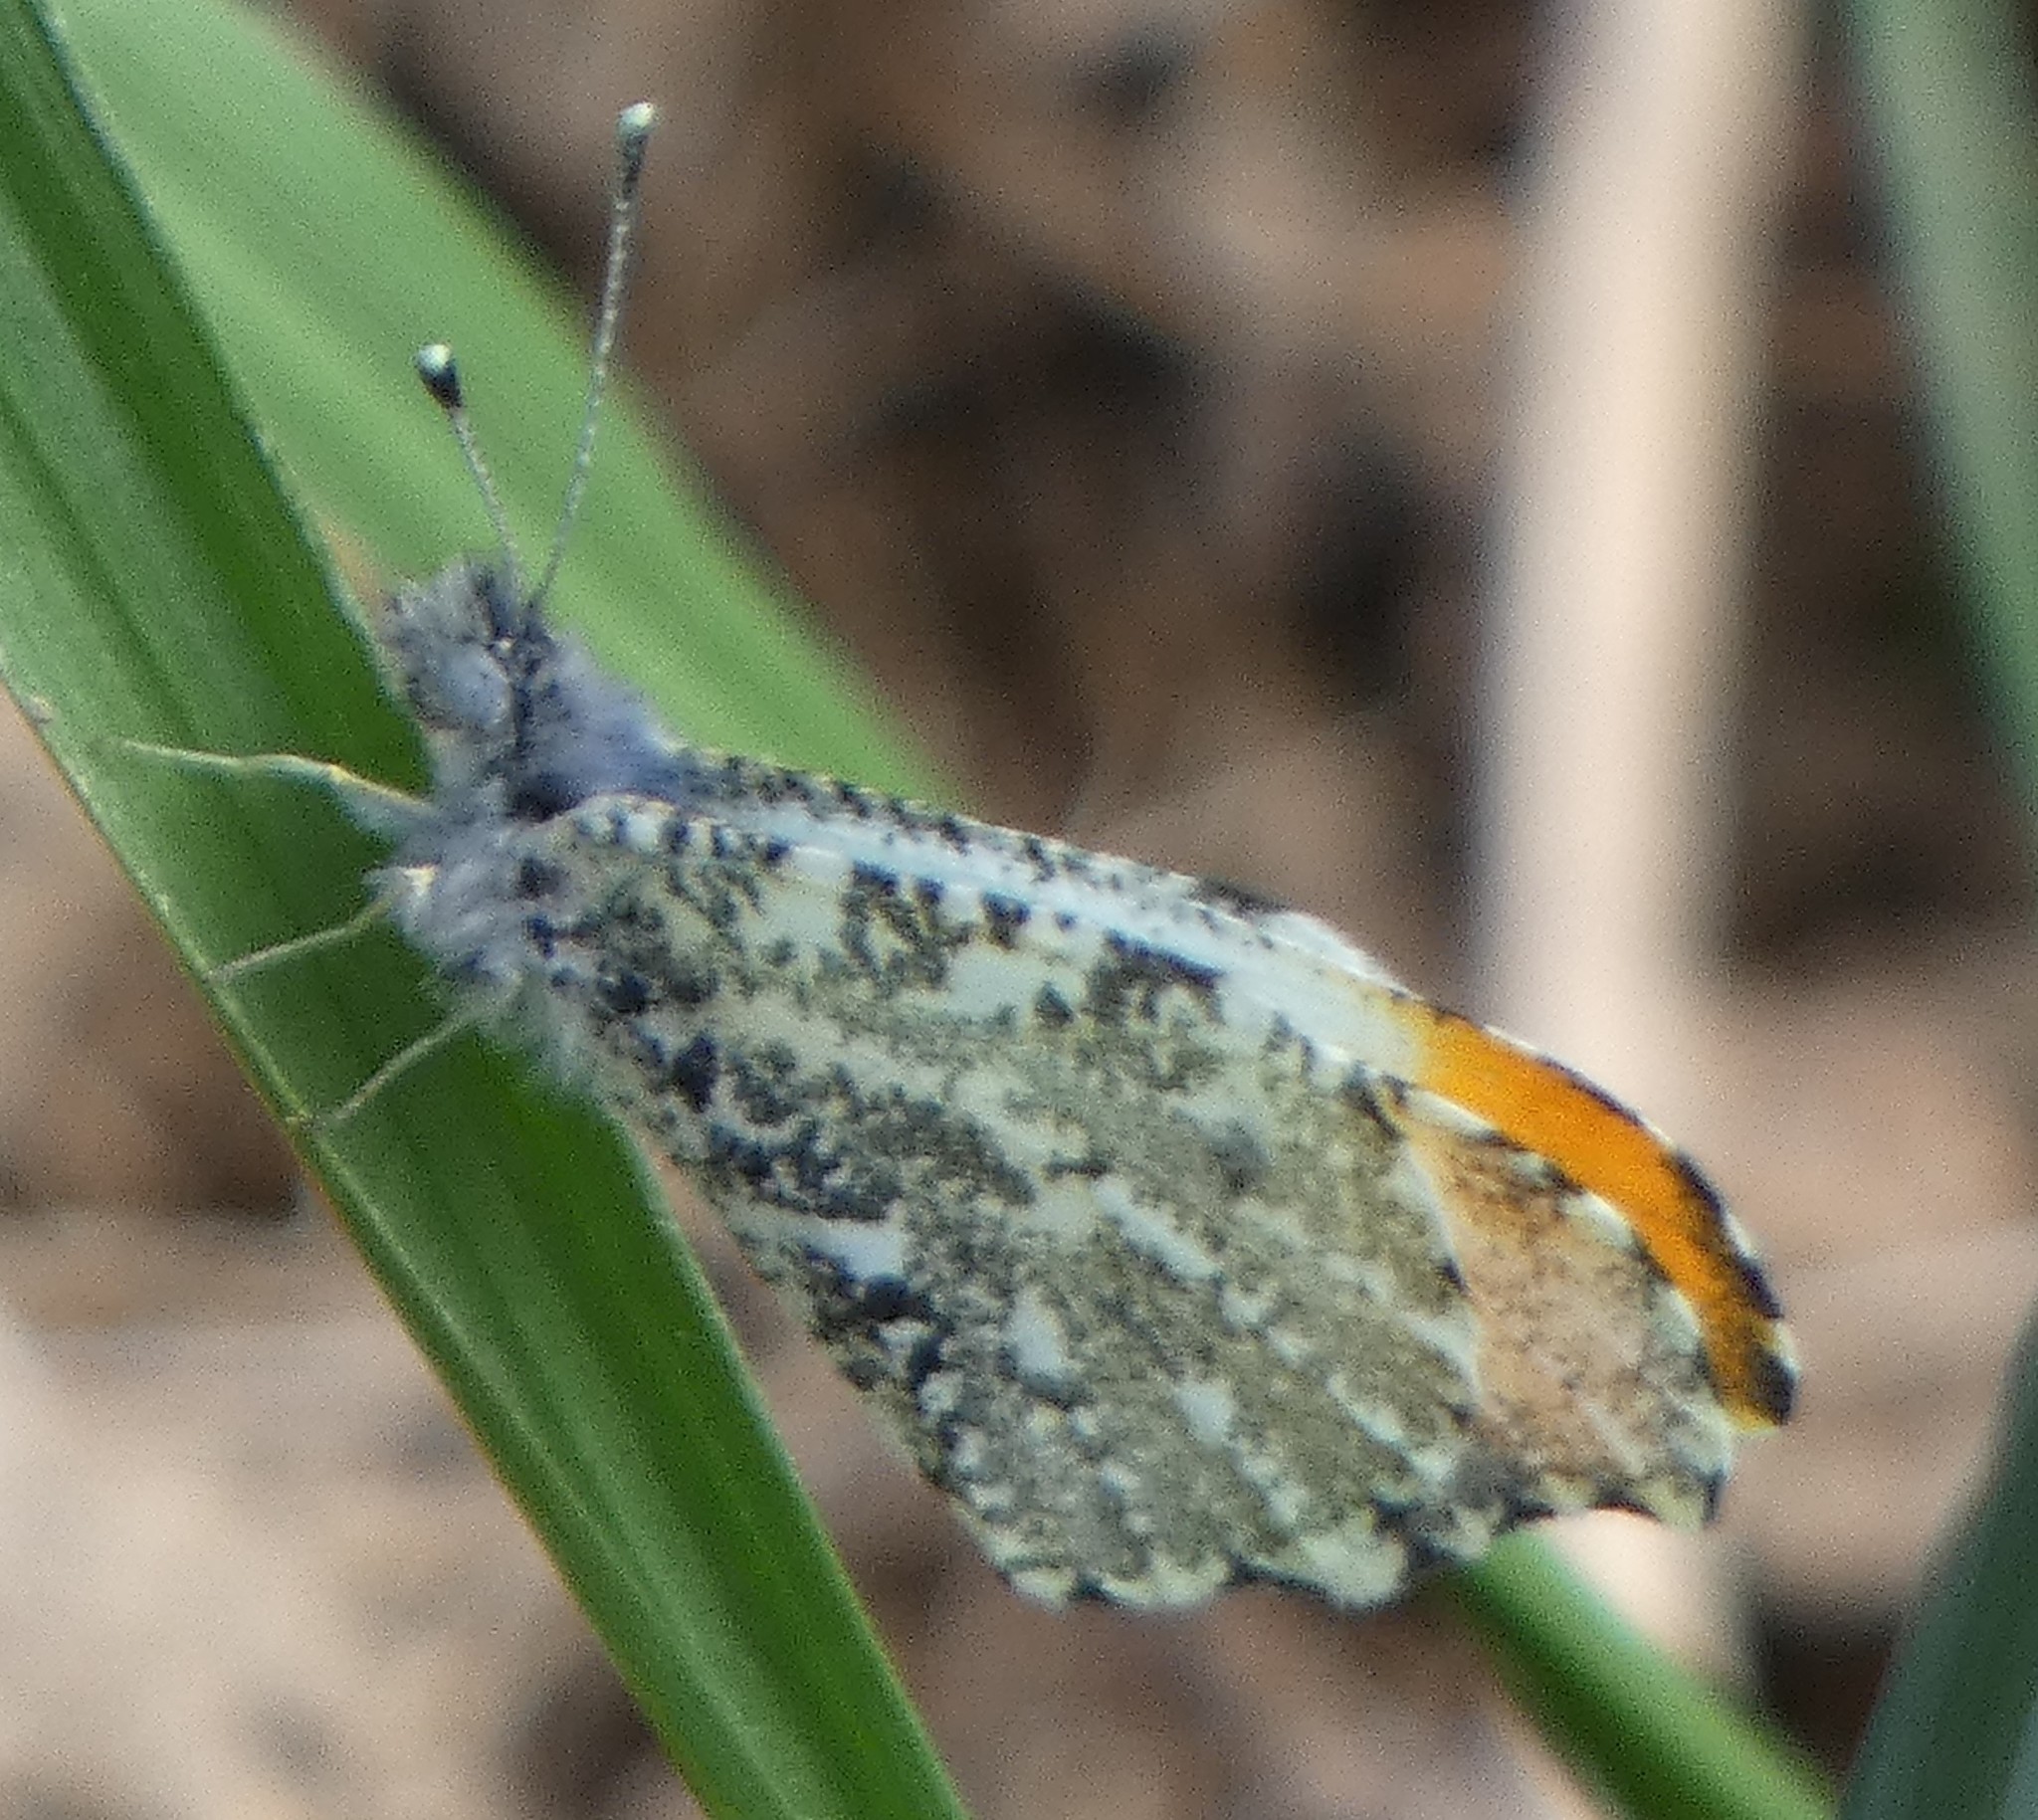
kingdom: Animalia
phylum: Arthropoda
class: Insecta
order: Lepidoptera
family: Pieridae
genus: Anthocharis
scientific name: Anthocharis midea
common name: Falcate orangetip
